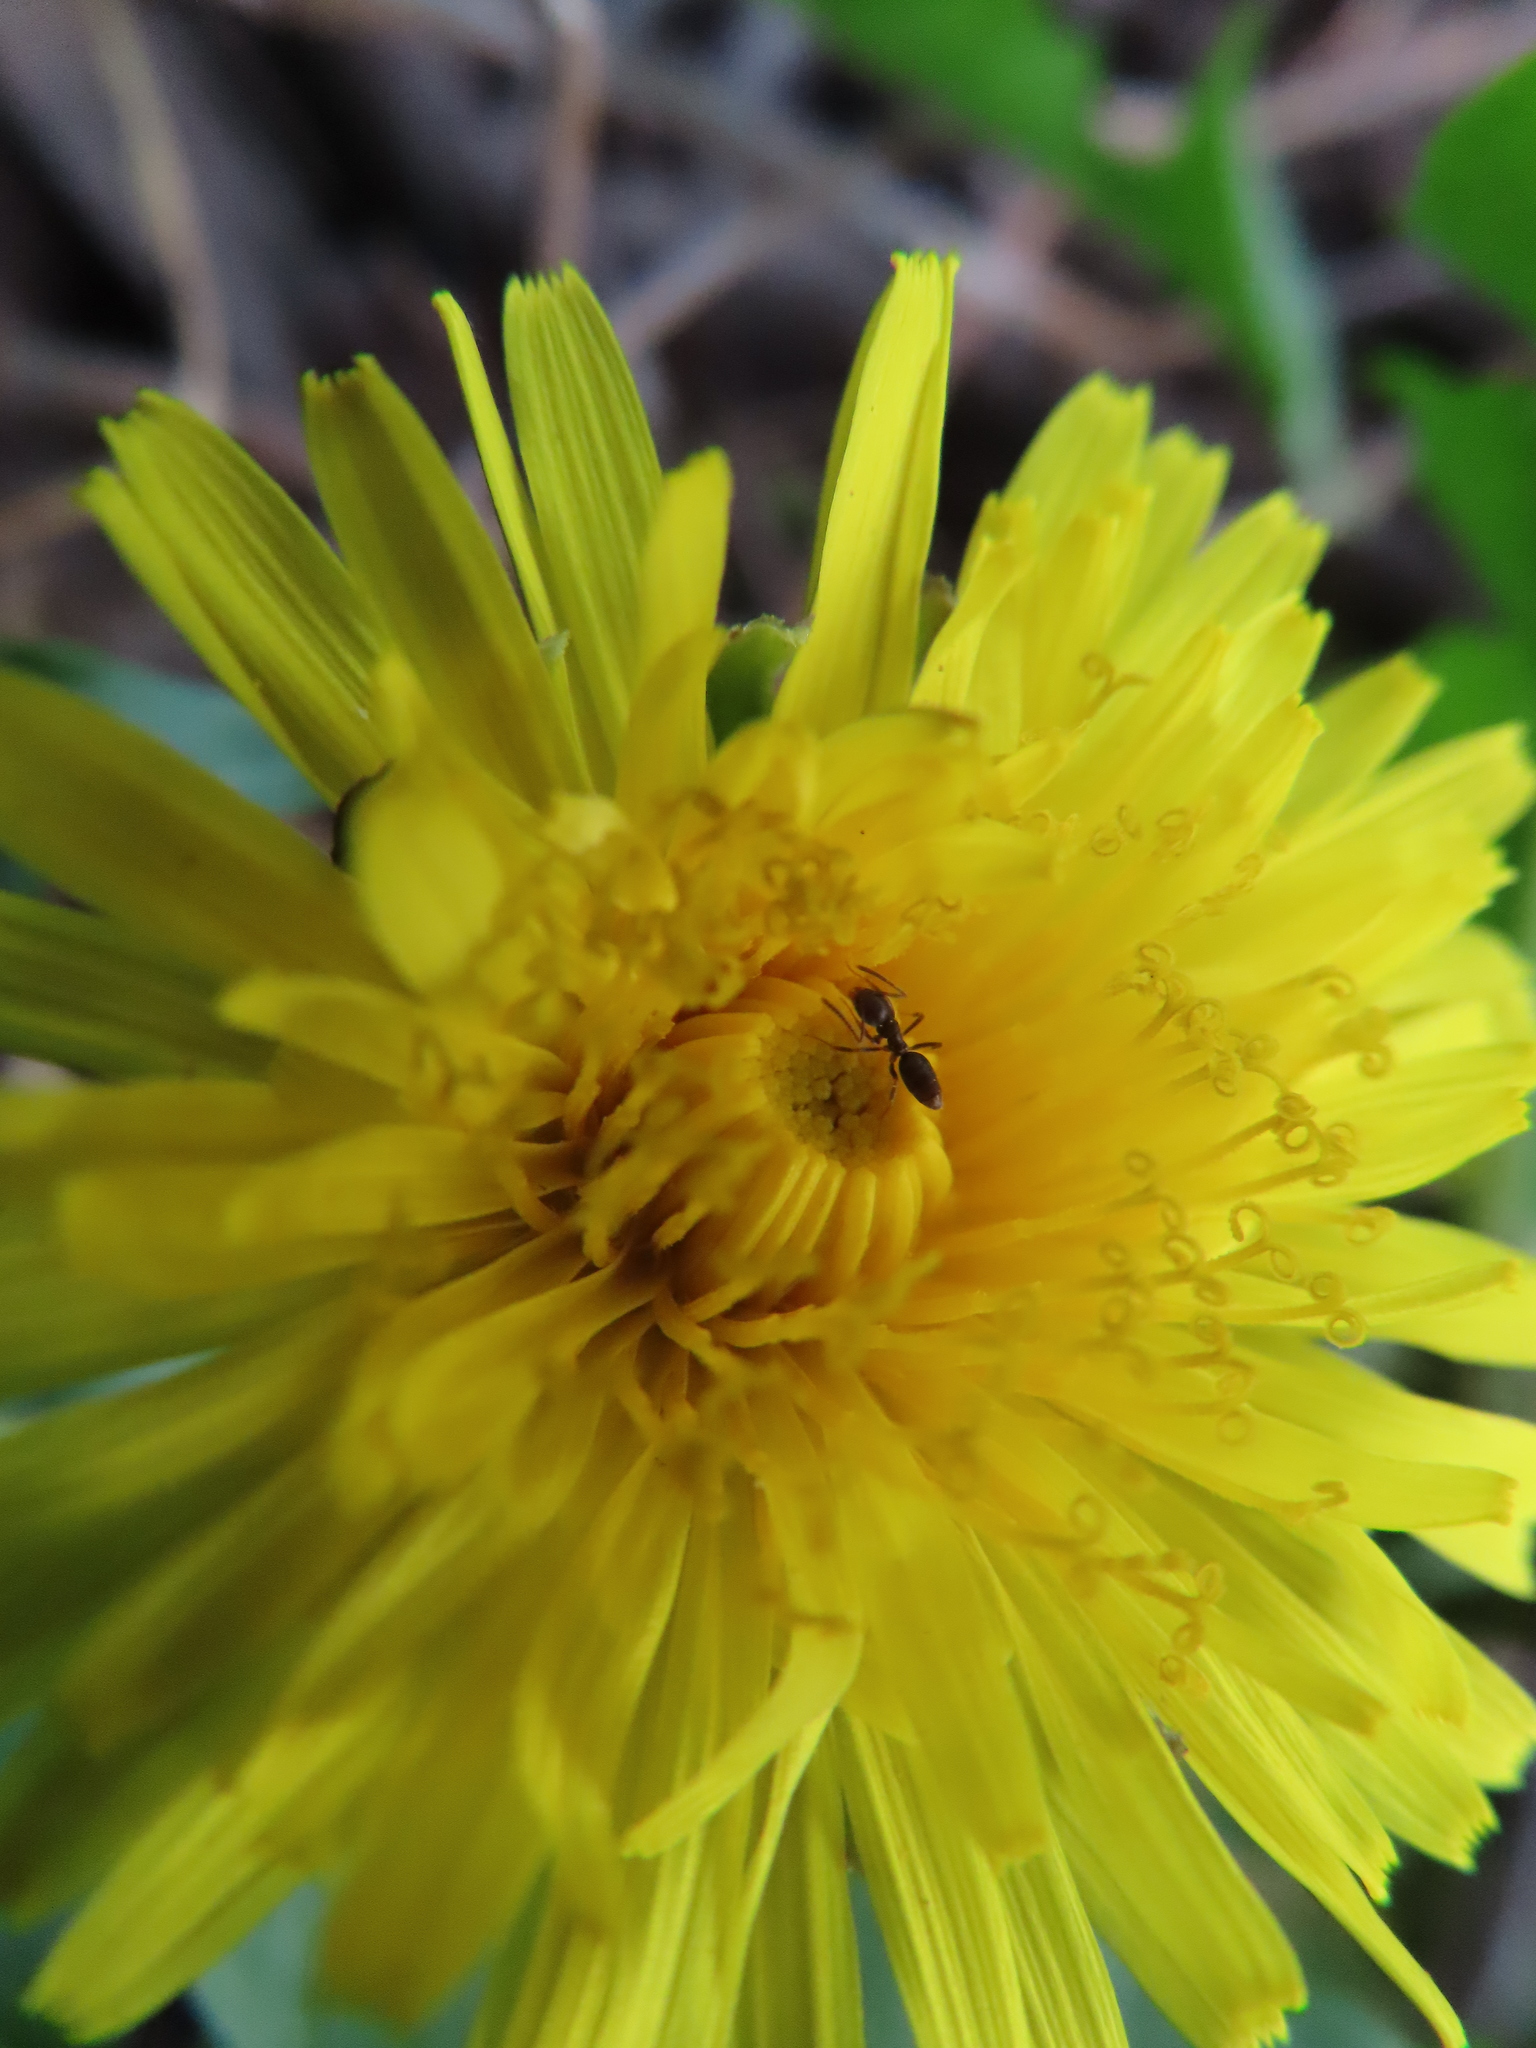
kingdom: Animalia
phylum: Arthropoda
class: Insecta
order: Hymenoptera
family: Formicidae
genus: Tapinoma
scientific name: Tapinoma sessile
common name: Odorous house ant
